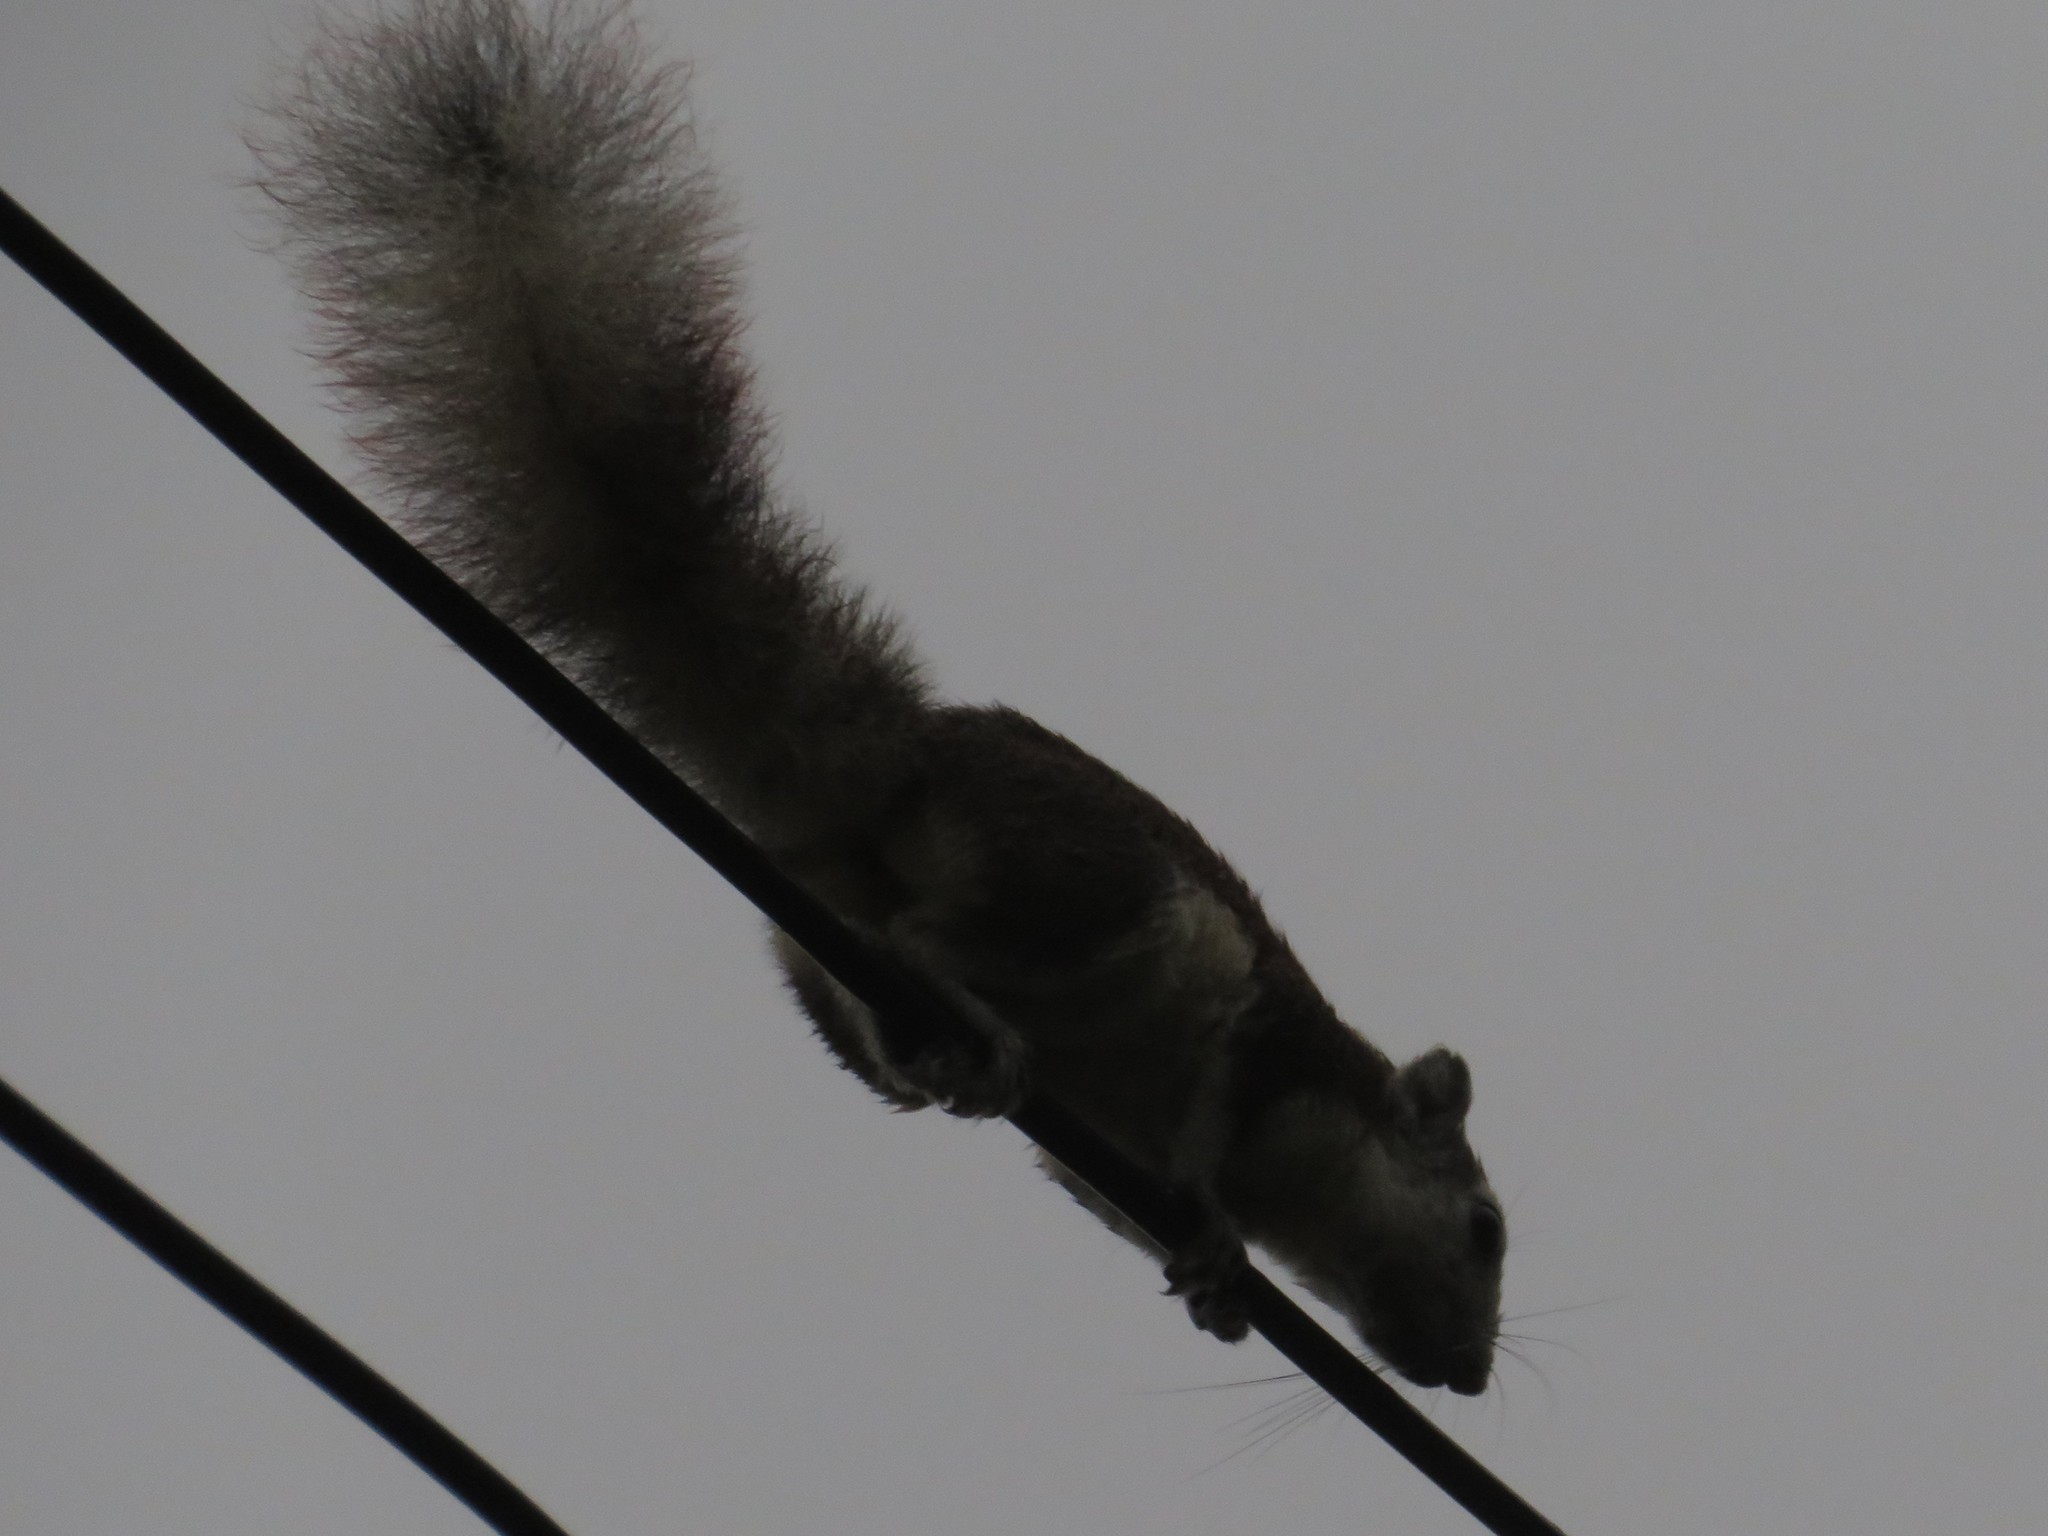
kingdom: Animalia
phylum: Chordata
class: Mammalia
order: Rodentia
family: Sciuridae
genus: Callosciurus
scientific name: Callosciurus finlaysonii
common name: Finlayson's squirrel
